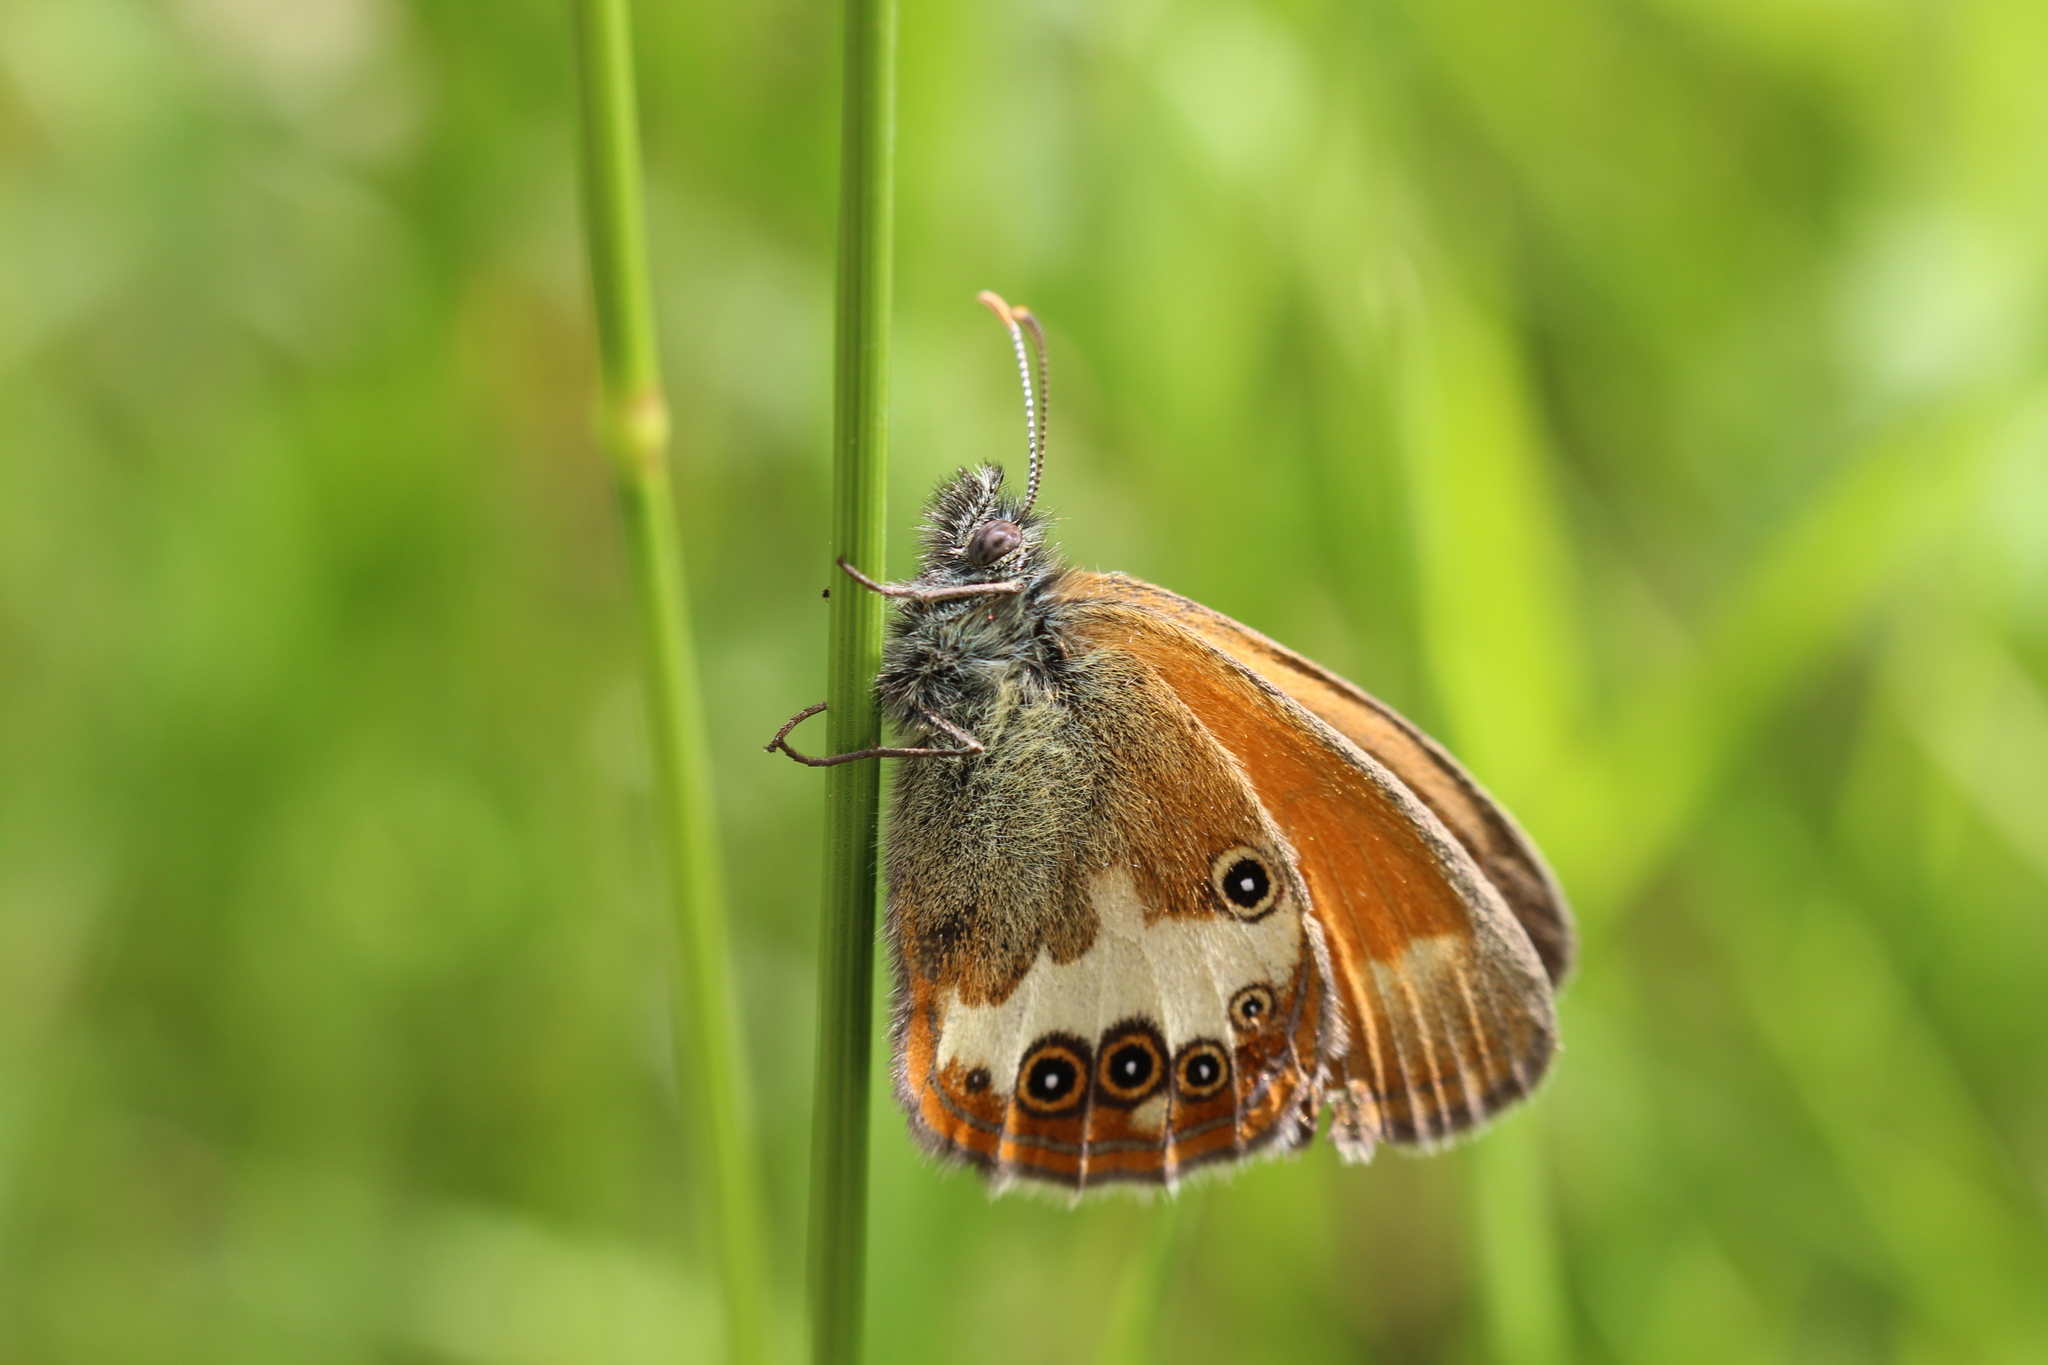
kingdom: Animalia
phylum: Arthropoda
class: Insecta
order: Lepidoptera
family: Nymphalidae
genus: Coenonympha
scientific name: Coenonympha arcania
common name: Pearly heath
